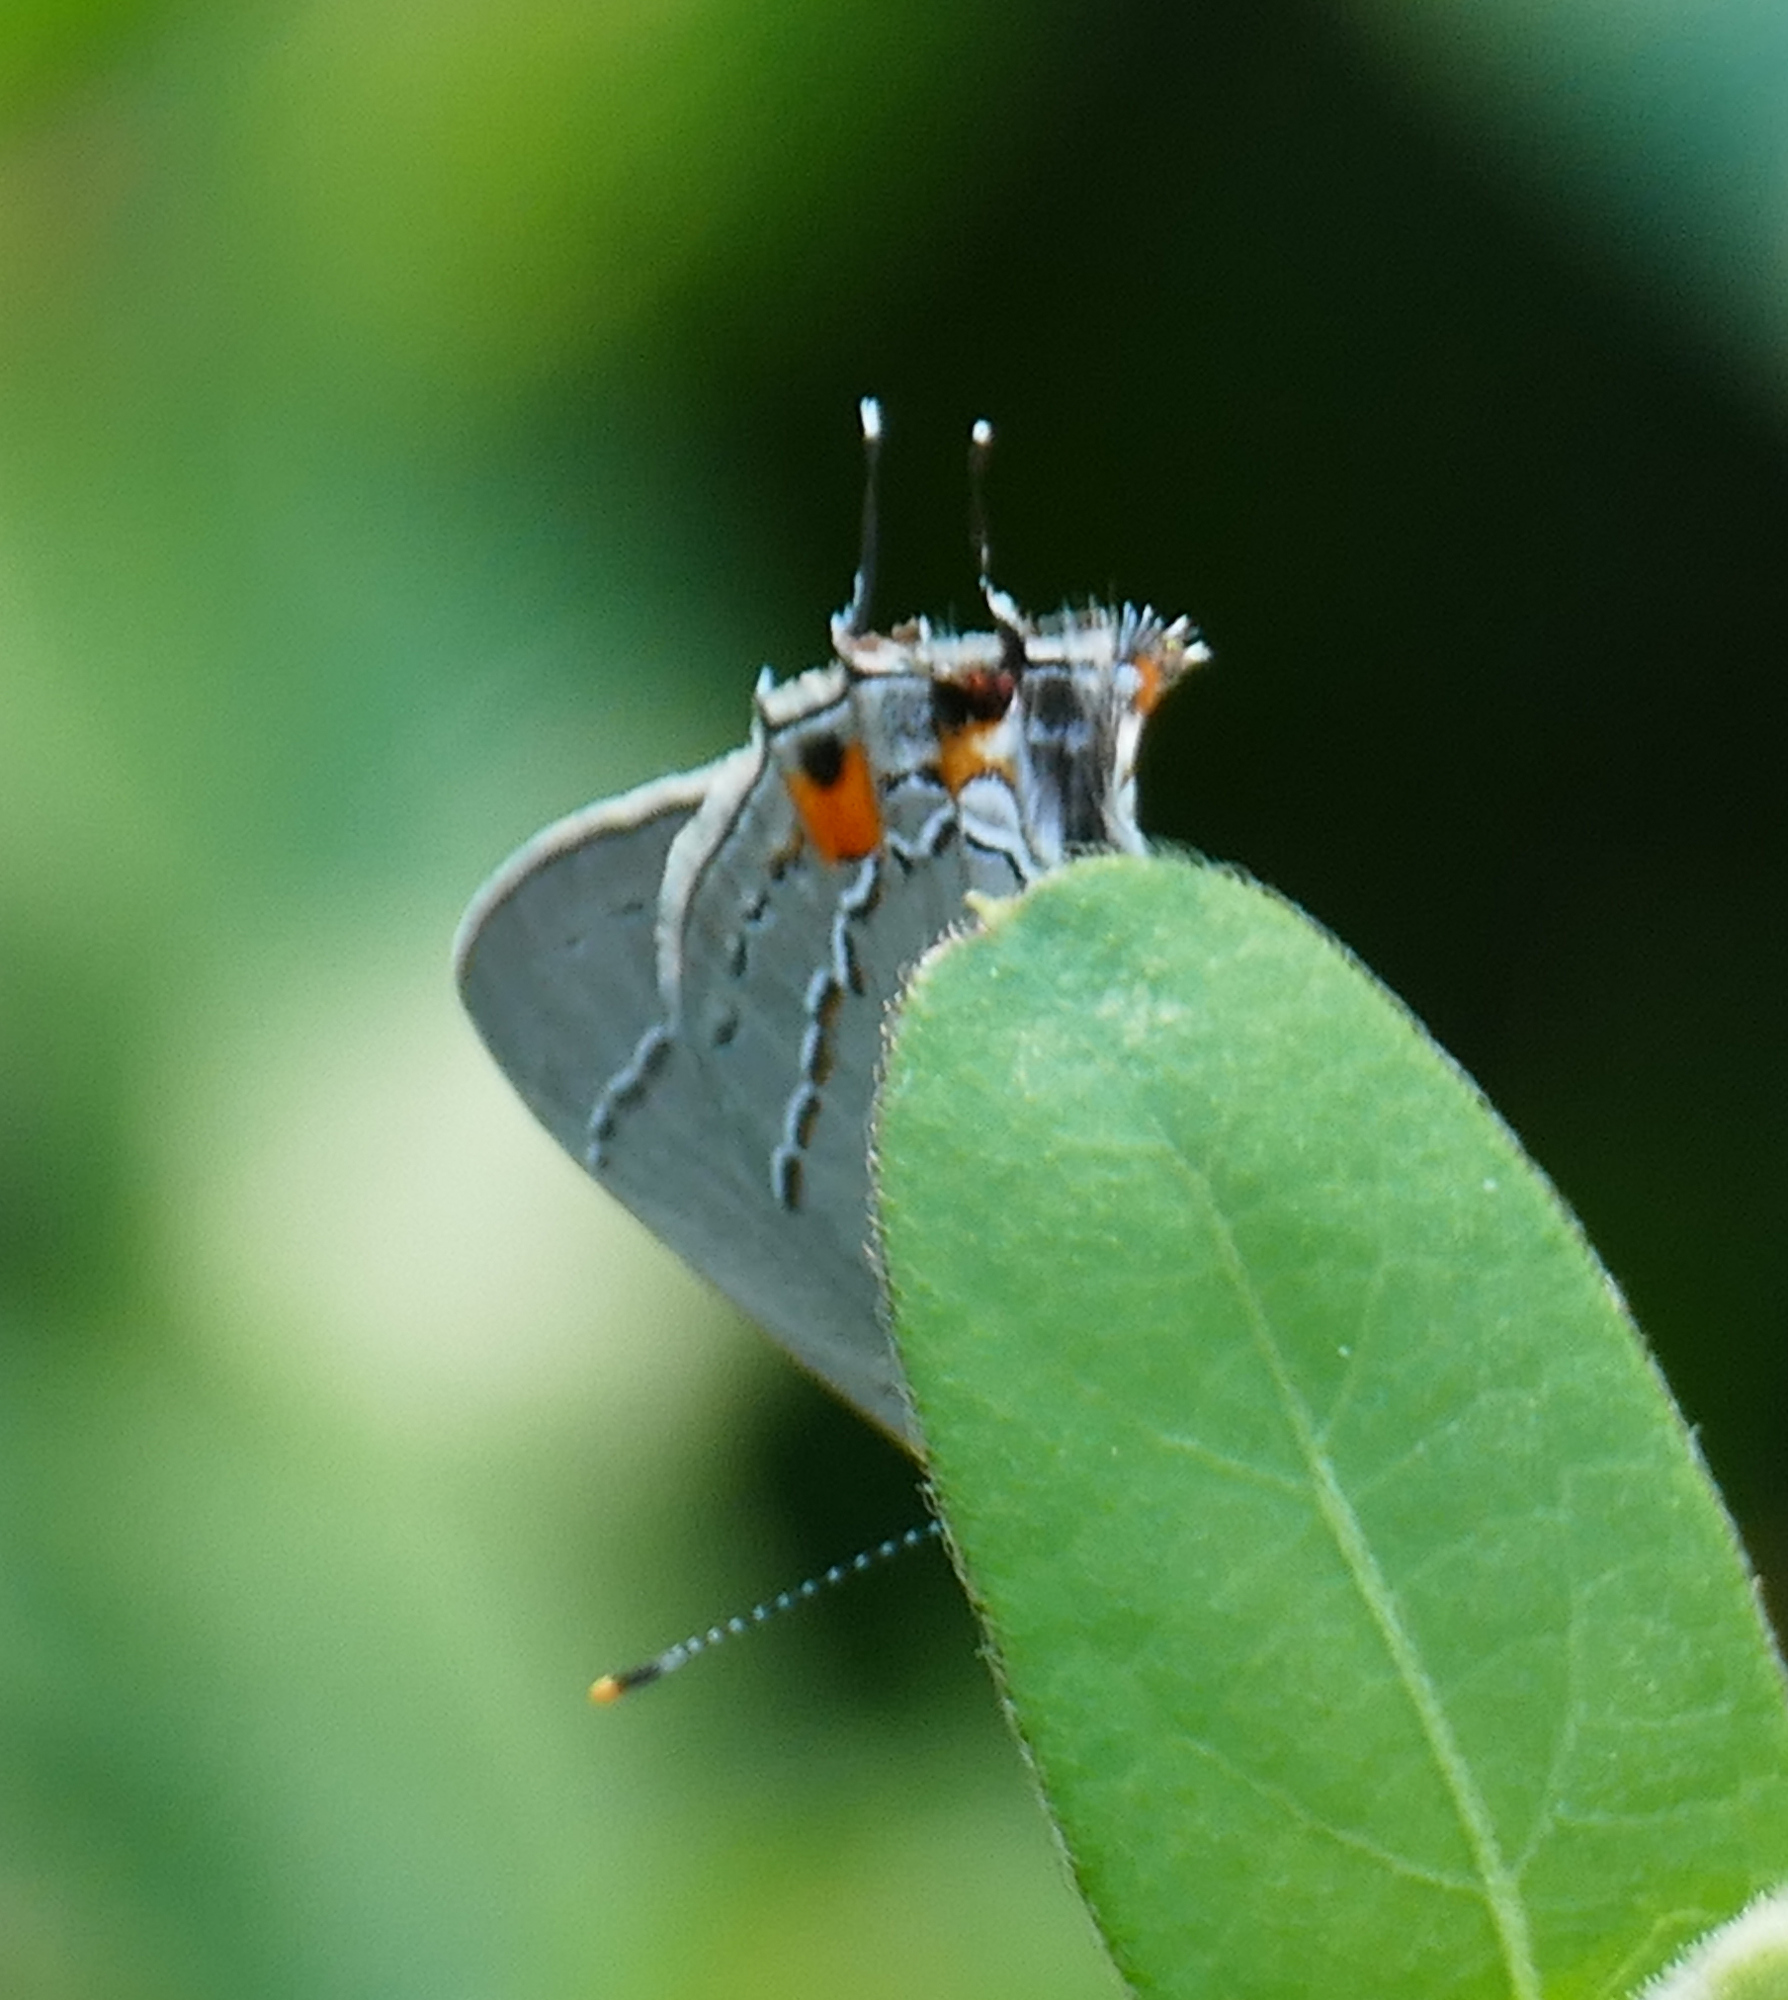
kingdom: Animalia
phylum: Arthropoda
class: Insecta
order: Lepidoptera
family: Lycaenidae
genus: Strymon
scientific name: Strymon melinus
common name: Gray hairstreak
